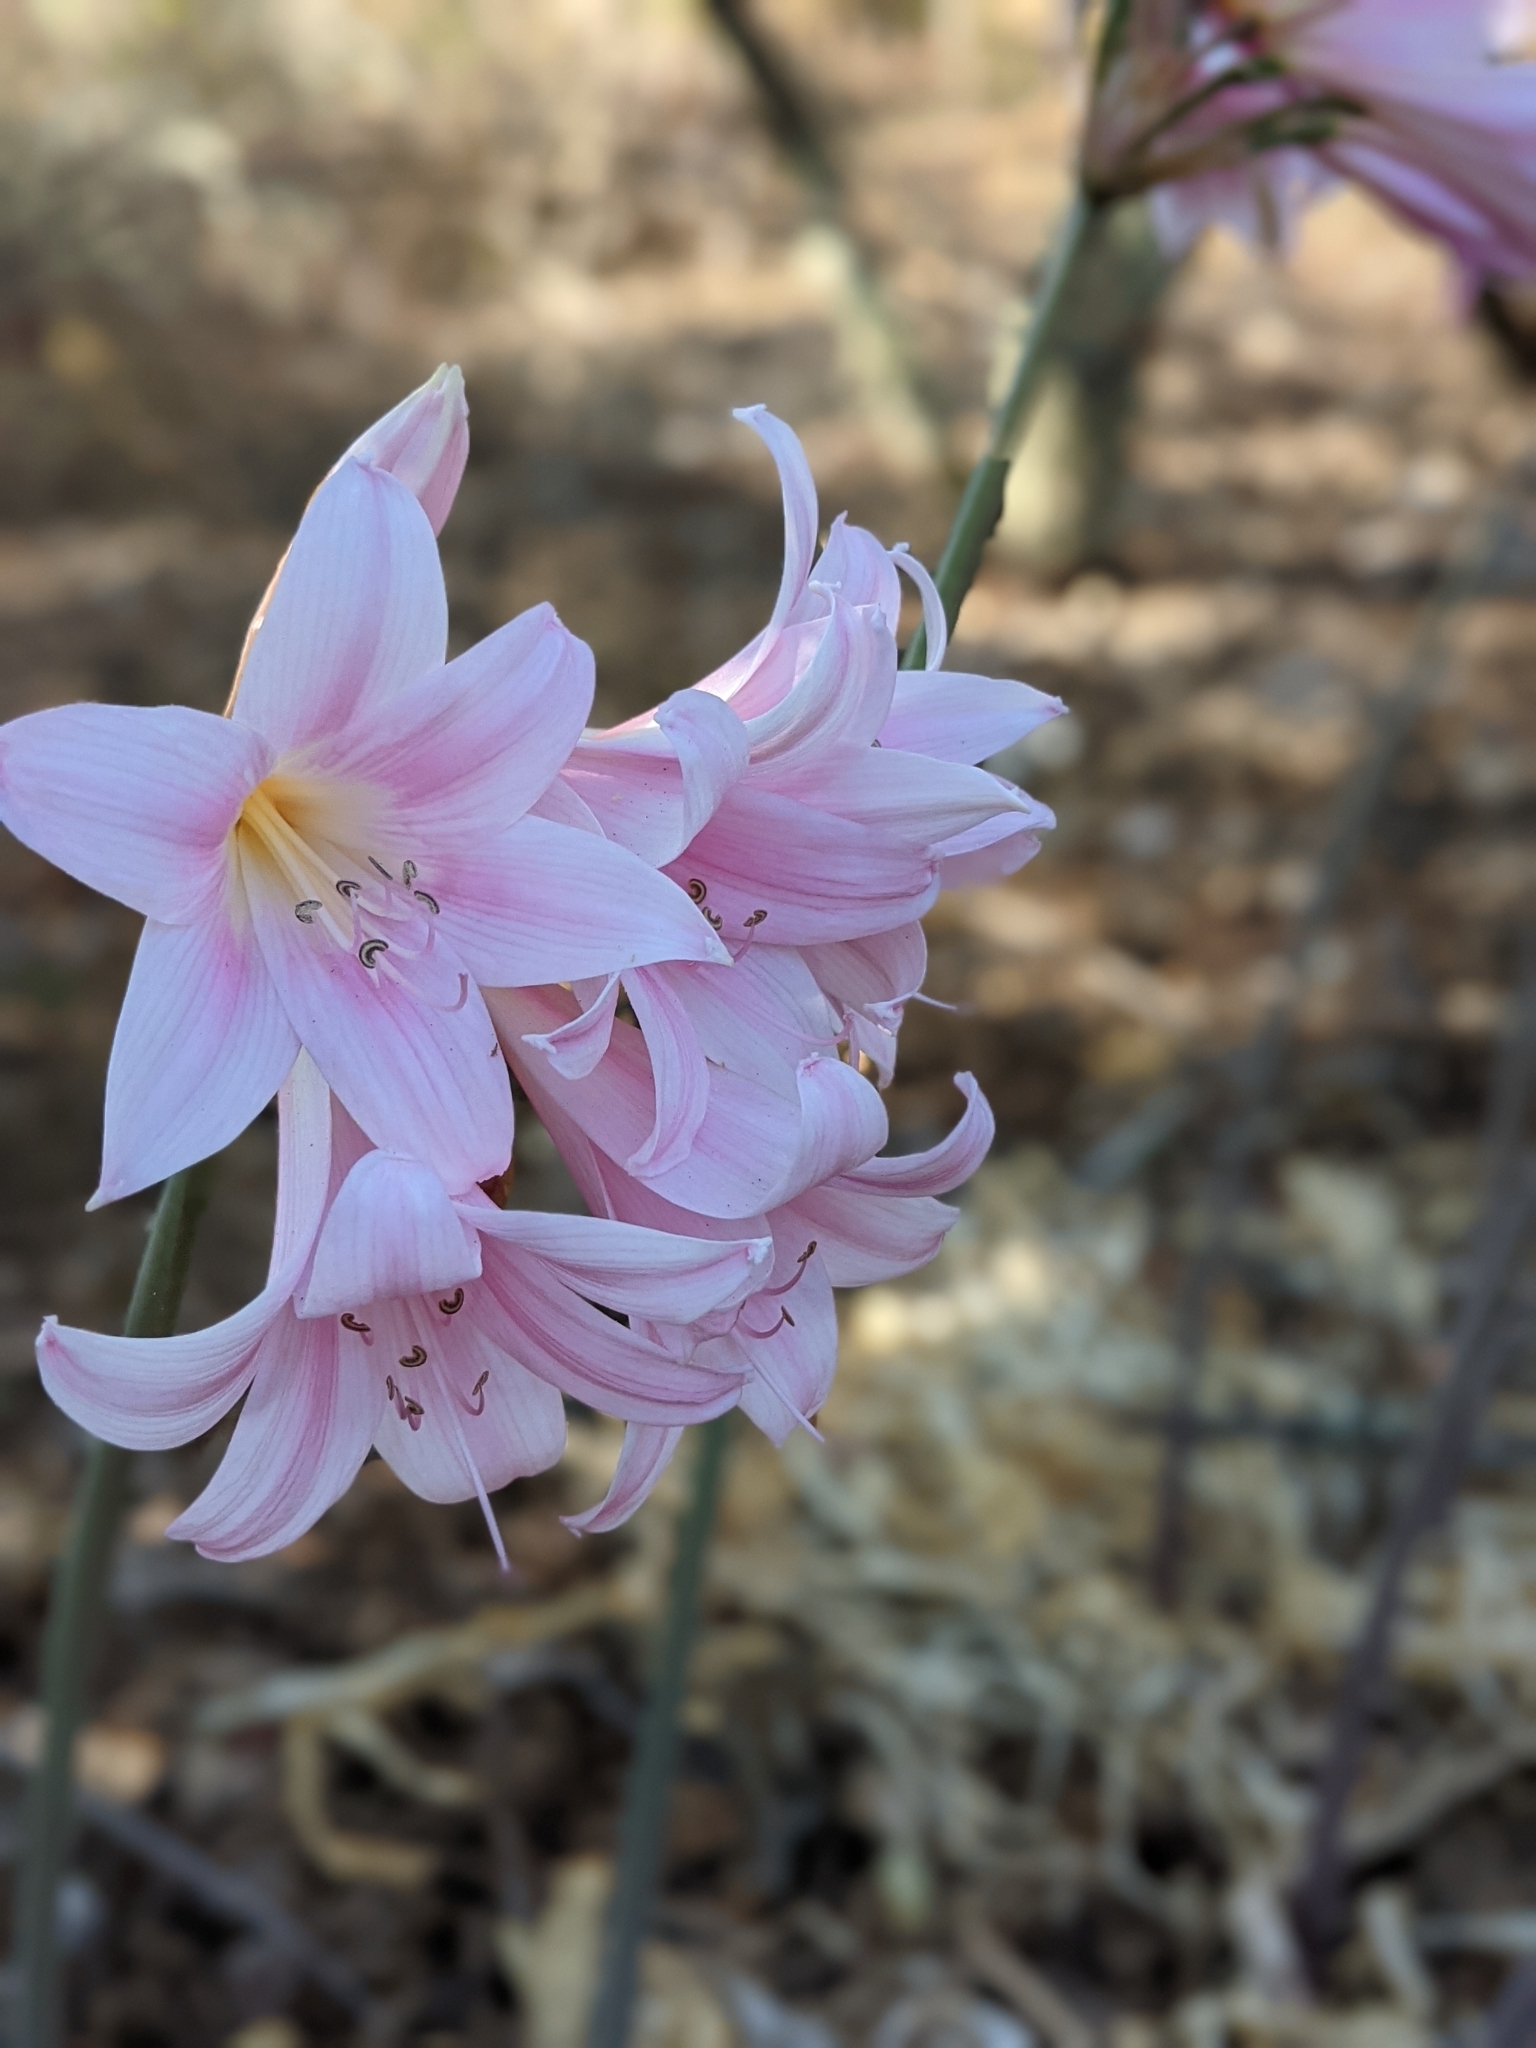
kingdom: Plantae
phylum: Tracheophyta
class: Liliopsida
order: Asparagales
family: Amaryllidaceae
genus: Amaryllis
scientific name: Amaryllis belladonna
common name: Jersey lily
